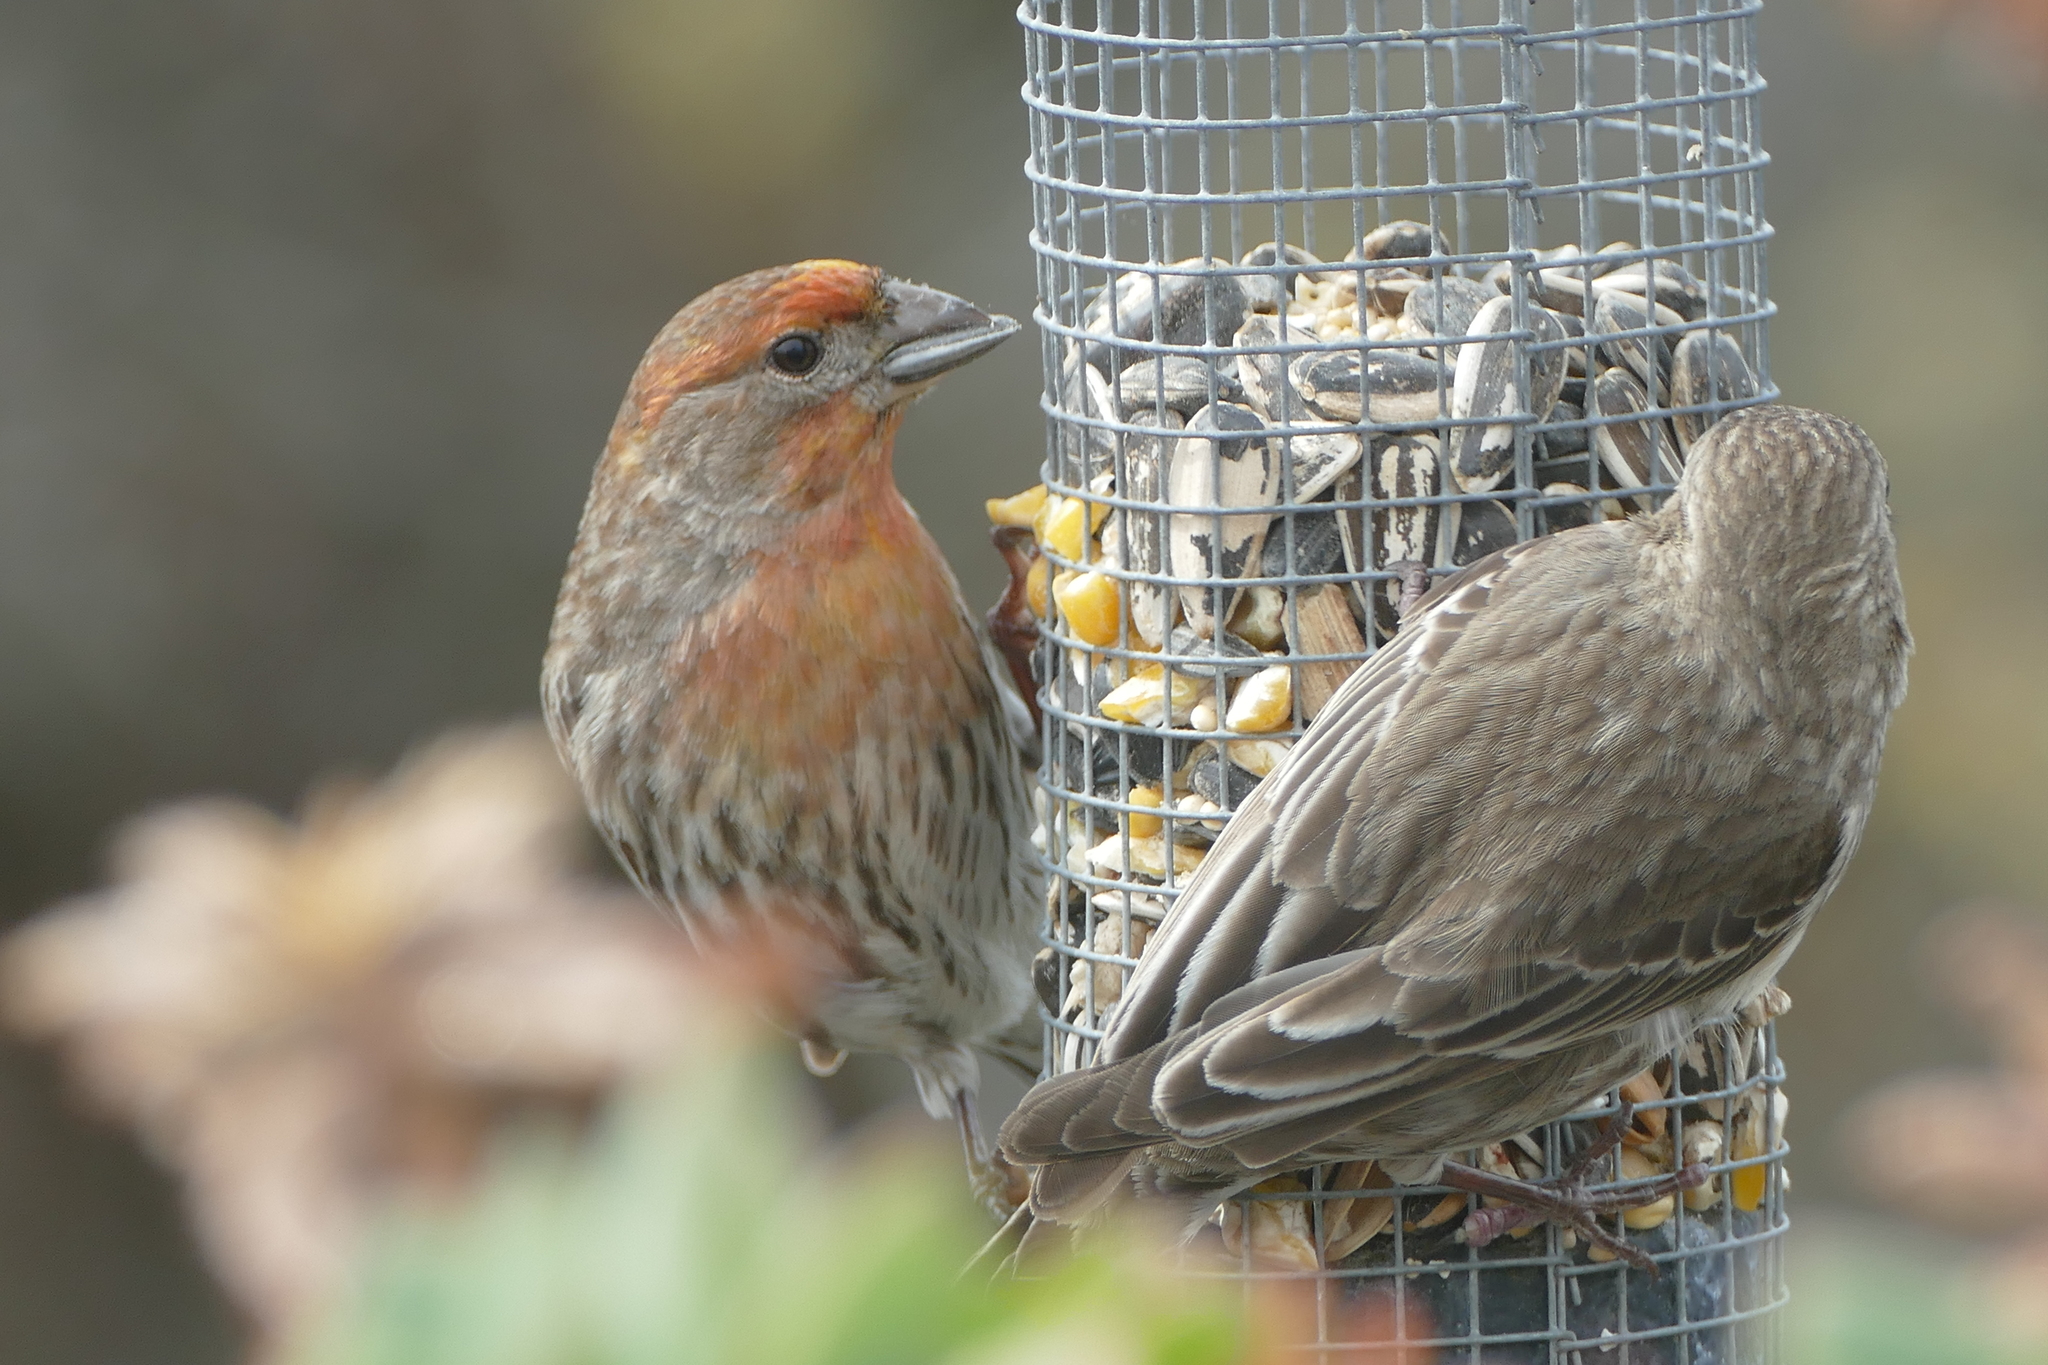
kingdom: Animalia
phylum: Chordata
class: Aves
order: Passeriformes
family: Fringillidae
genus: Haemorhous
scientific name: Haemorhous mexicanus
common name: House finch
